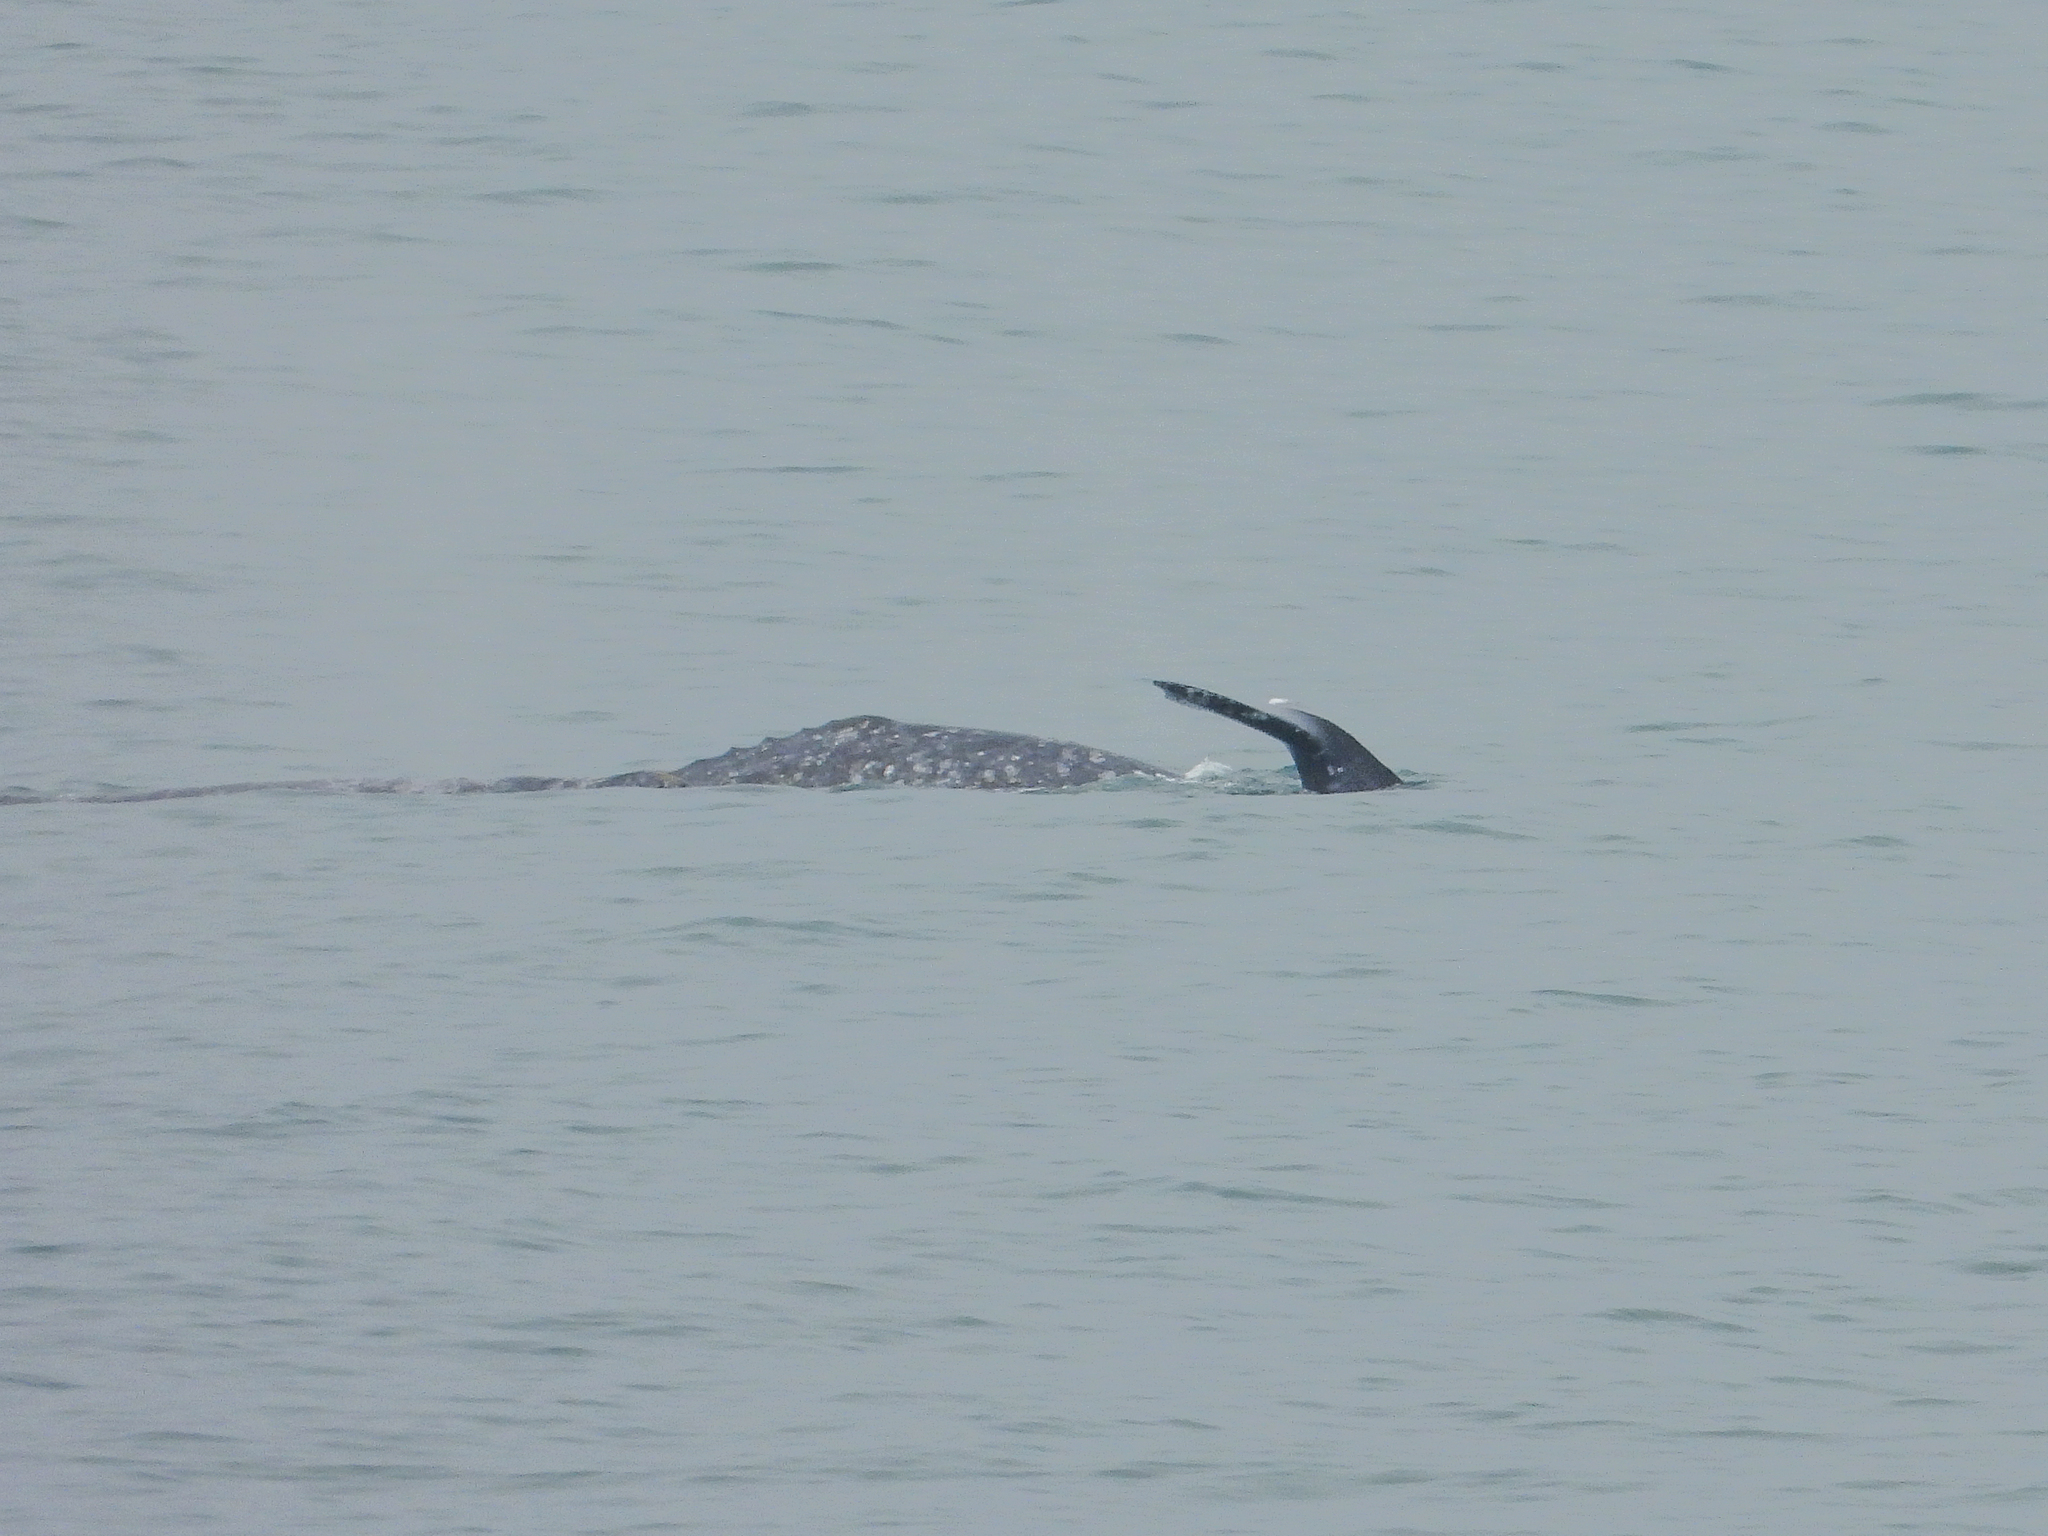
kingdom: Animalia
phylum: Chordata
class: Mammalia
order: Cetacea
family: Eschrichtiidae
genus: Eschrichtius
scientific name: Eschrichtius robustus
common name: Gray whale
